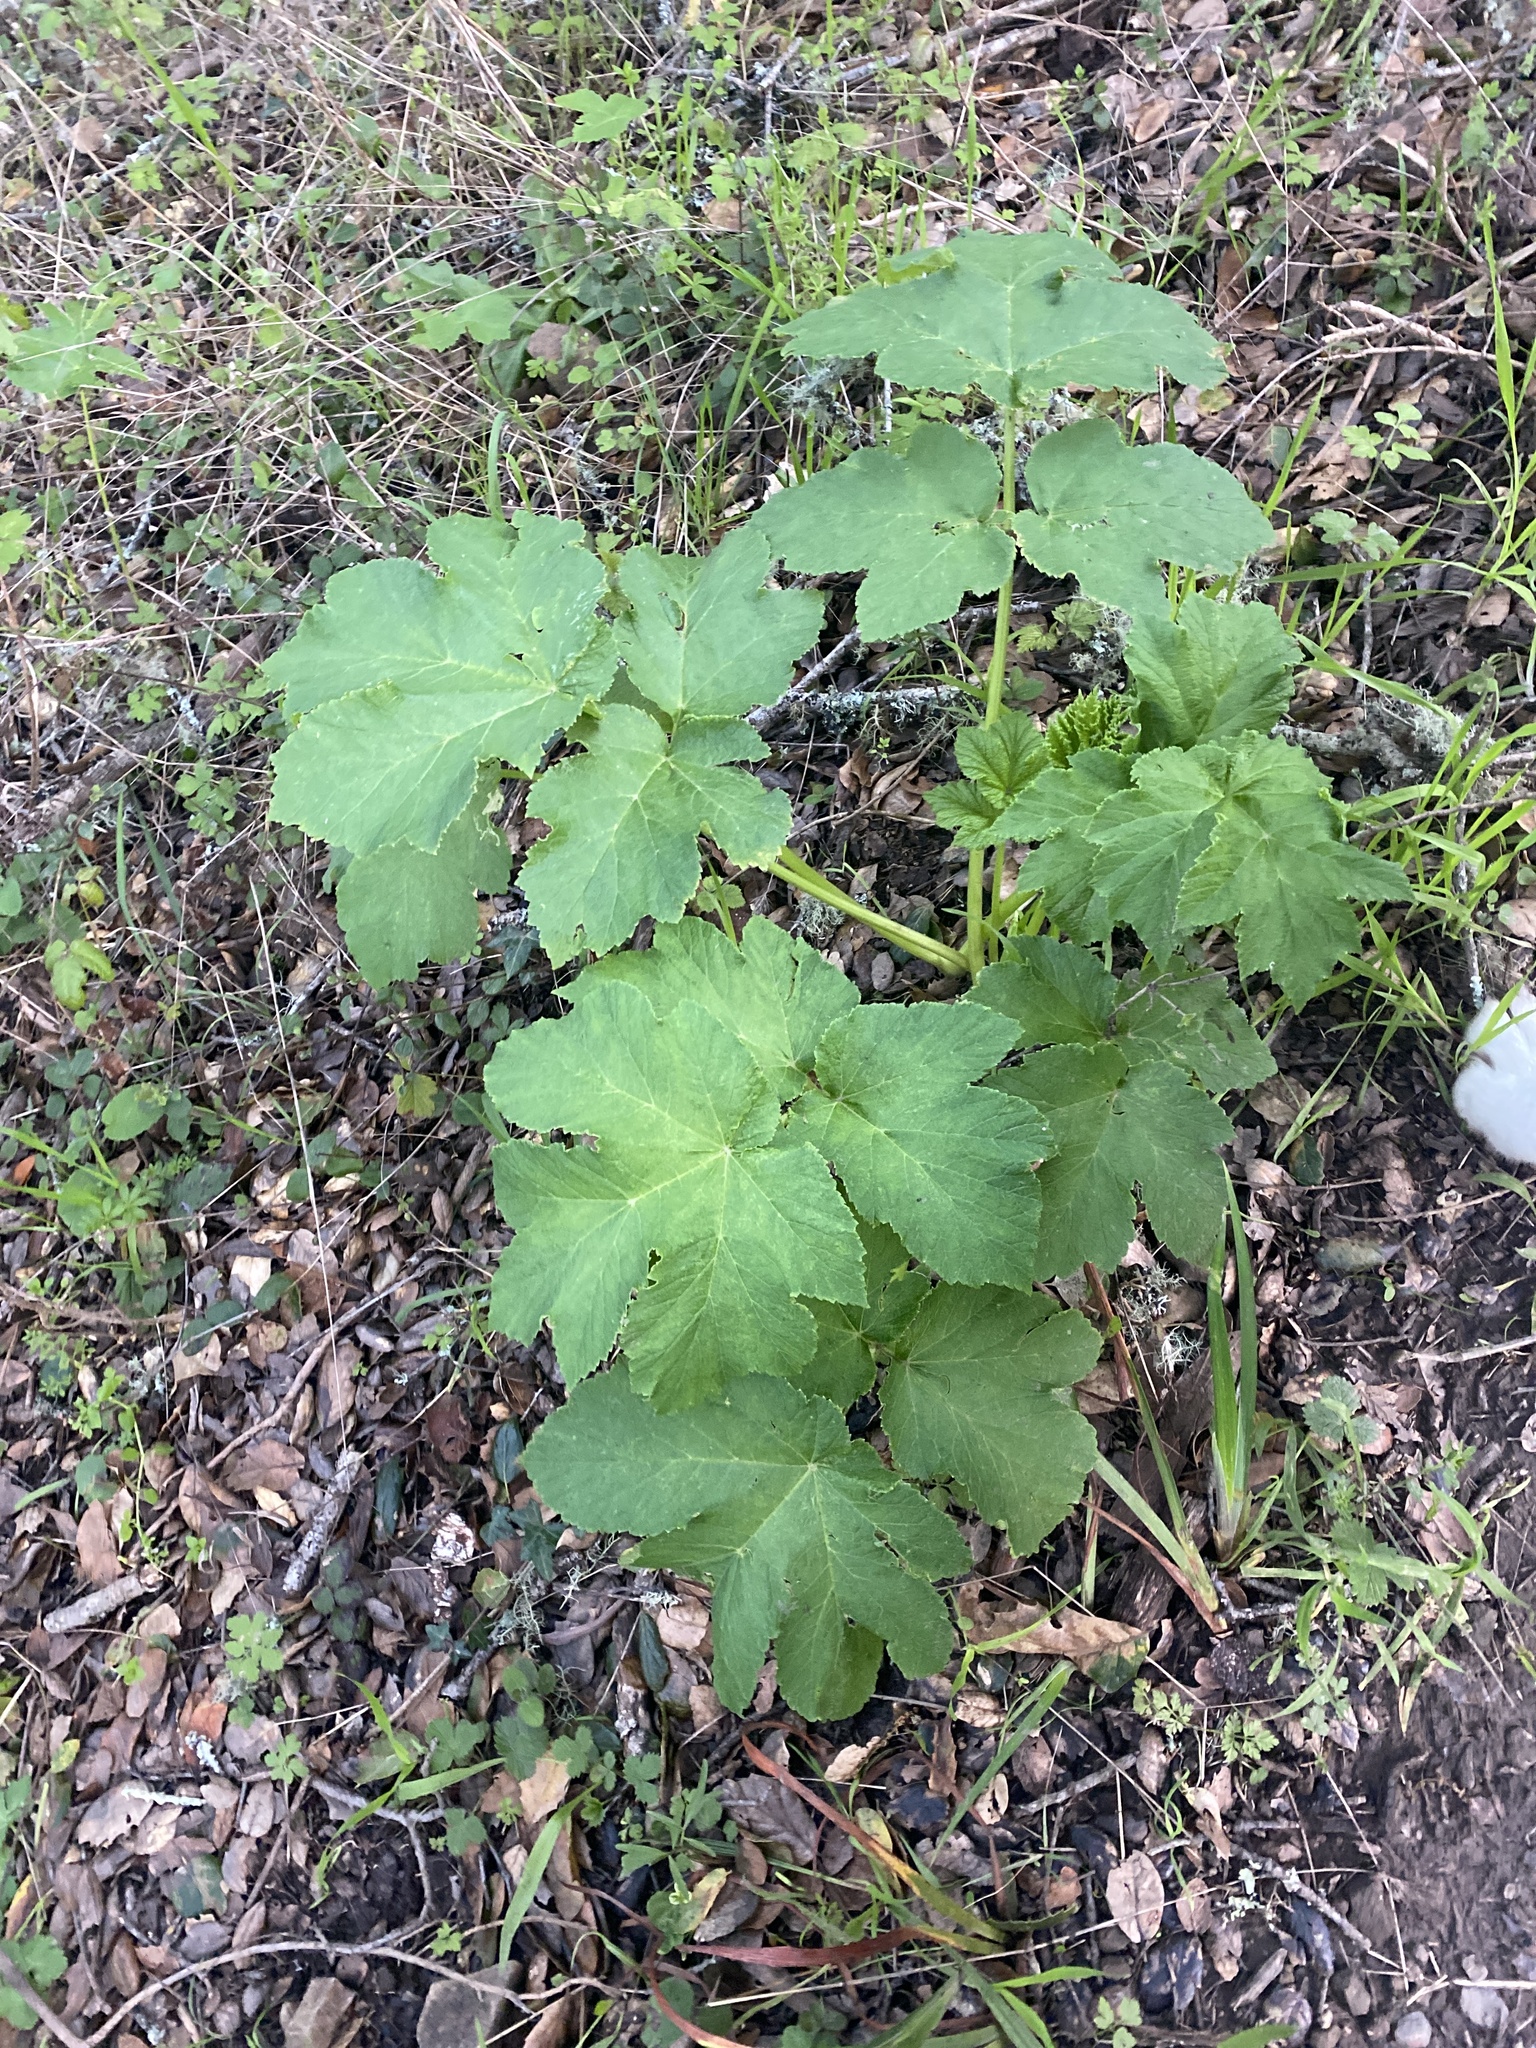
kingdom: Plantae
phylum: Tracheophyta
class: Magnoliopsida
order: Apiales
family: Apiaceae
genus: Heracleum
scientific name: Heracleum maximum
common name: American cow parsnip
